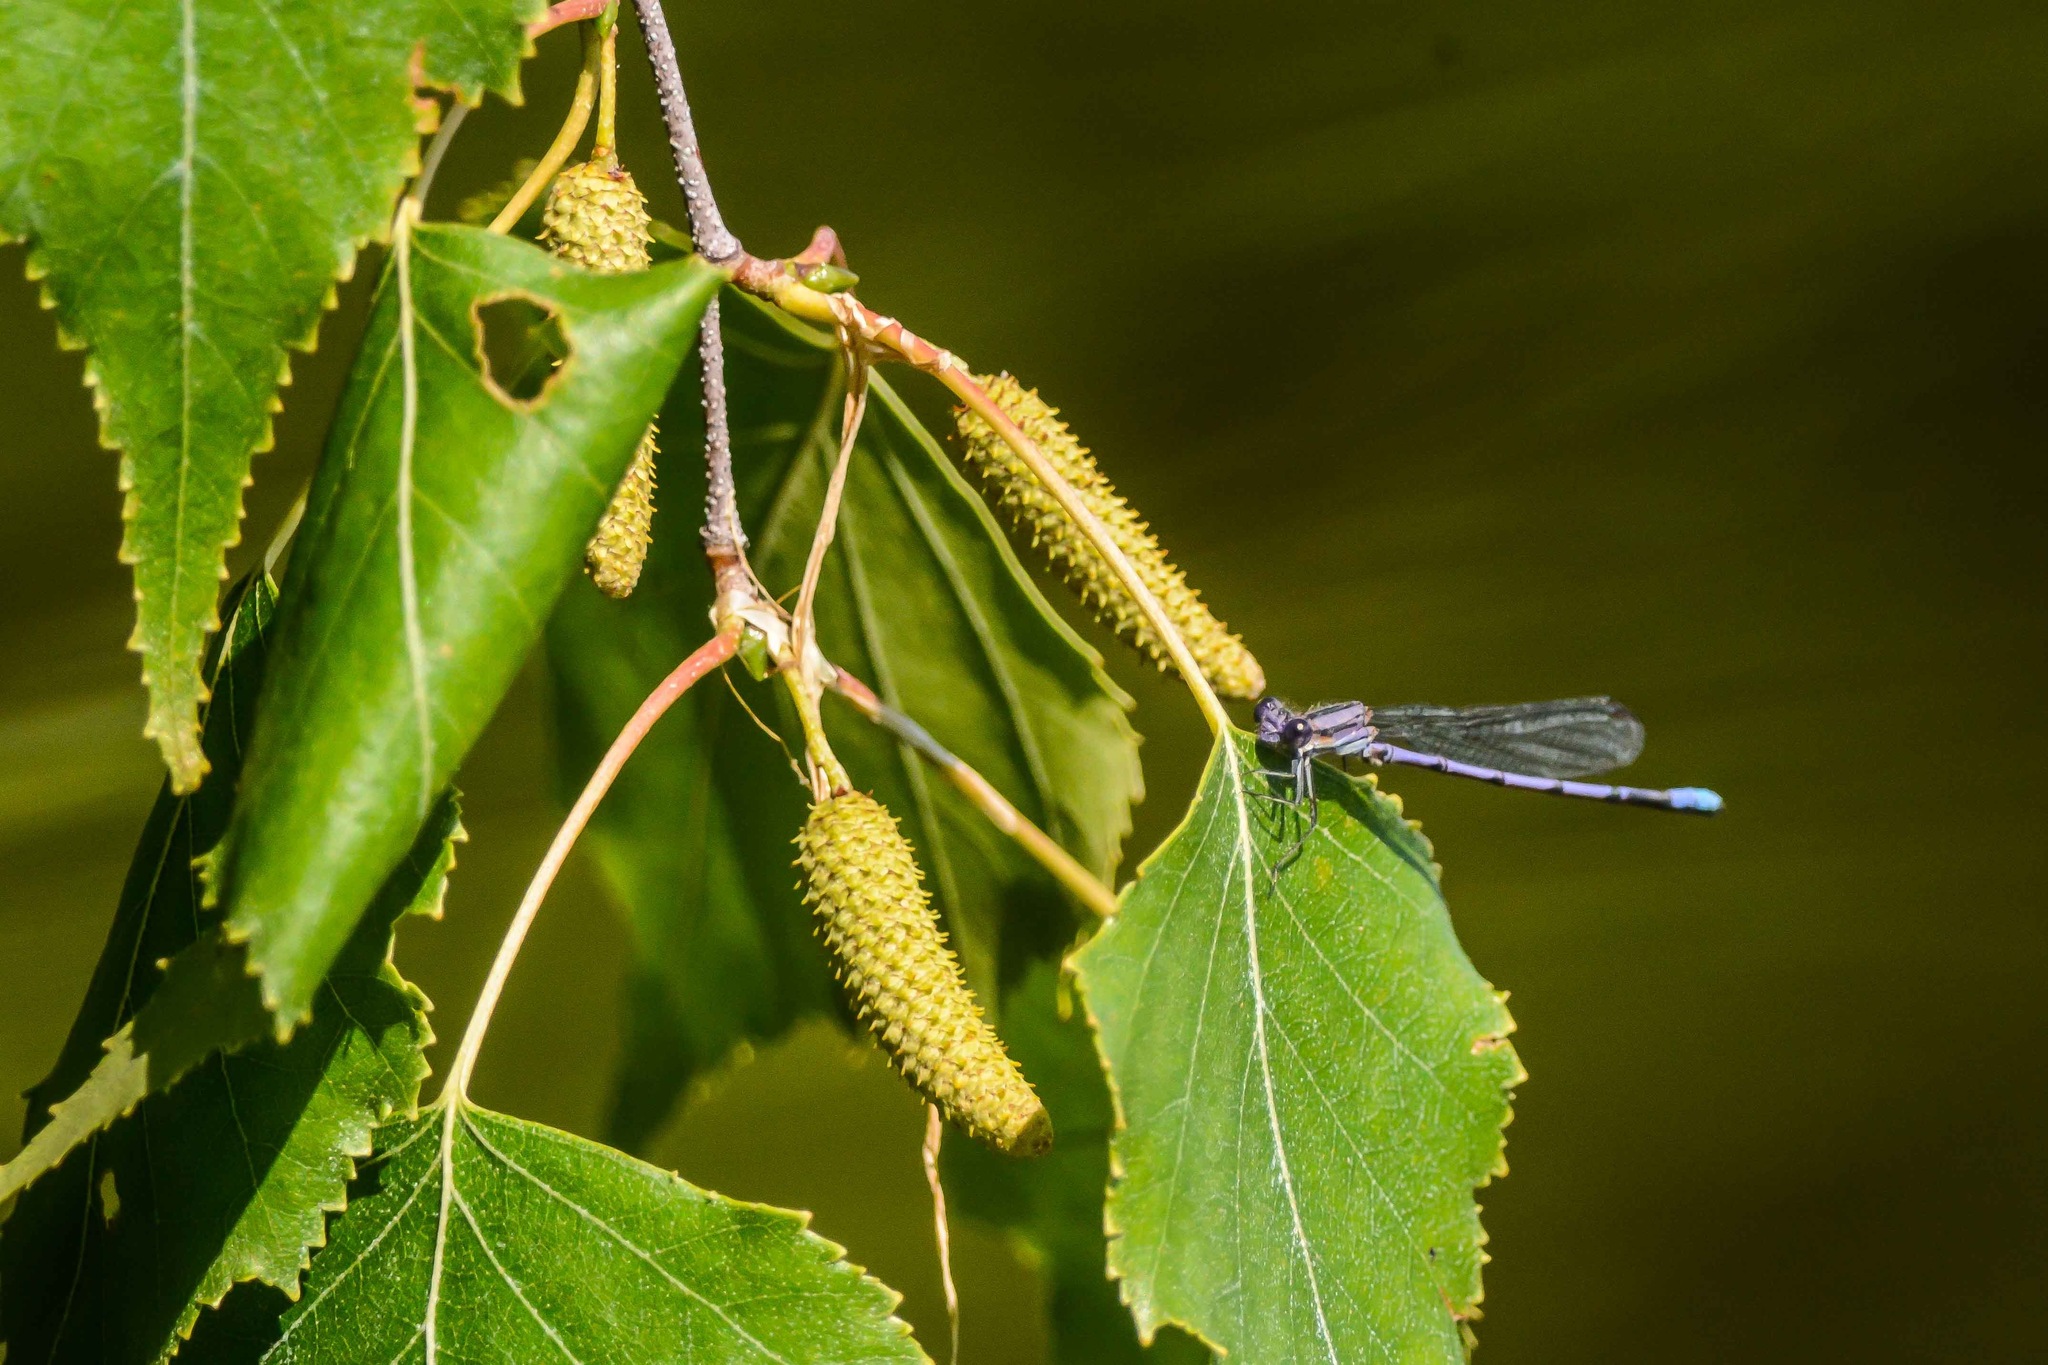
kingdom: Animalia
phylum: Arthropoda
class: Insecta
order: Odonata
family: Coenagrionidae
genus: Argia
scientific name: Argia fumipennis
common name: Variable dancer
